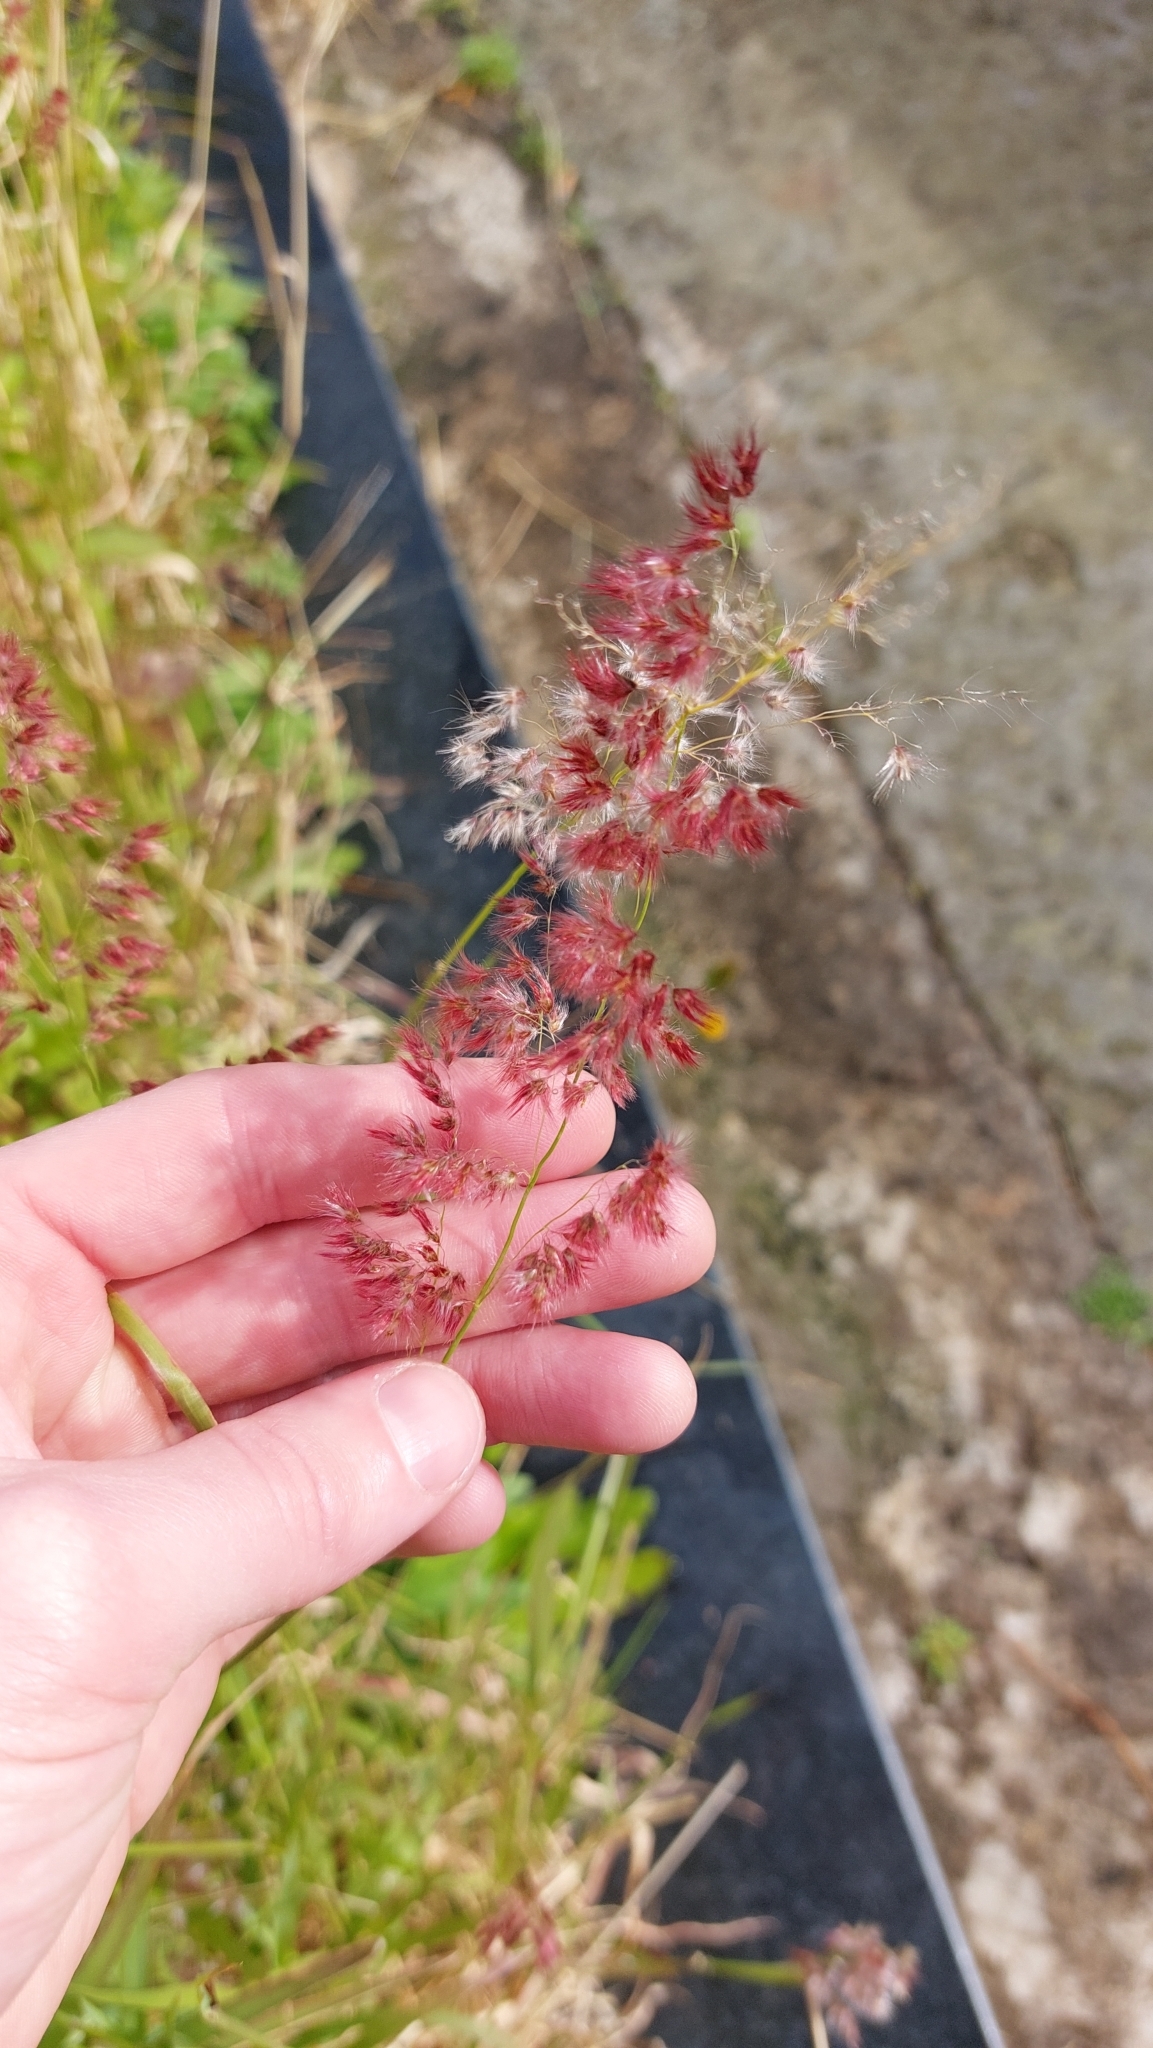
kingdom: Plantae
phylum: Tracheophyta
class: Liliopsida
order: Poales
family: Poaceae
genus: Melinis
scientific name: Melinis repens
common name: Rose natal grass
